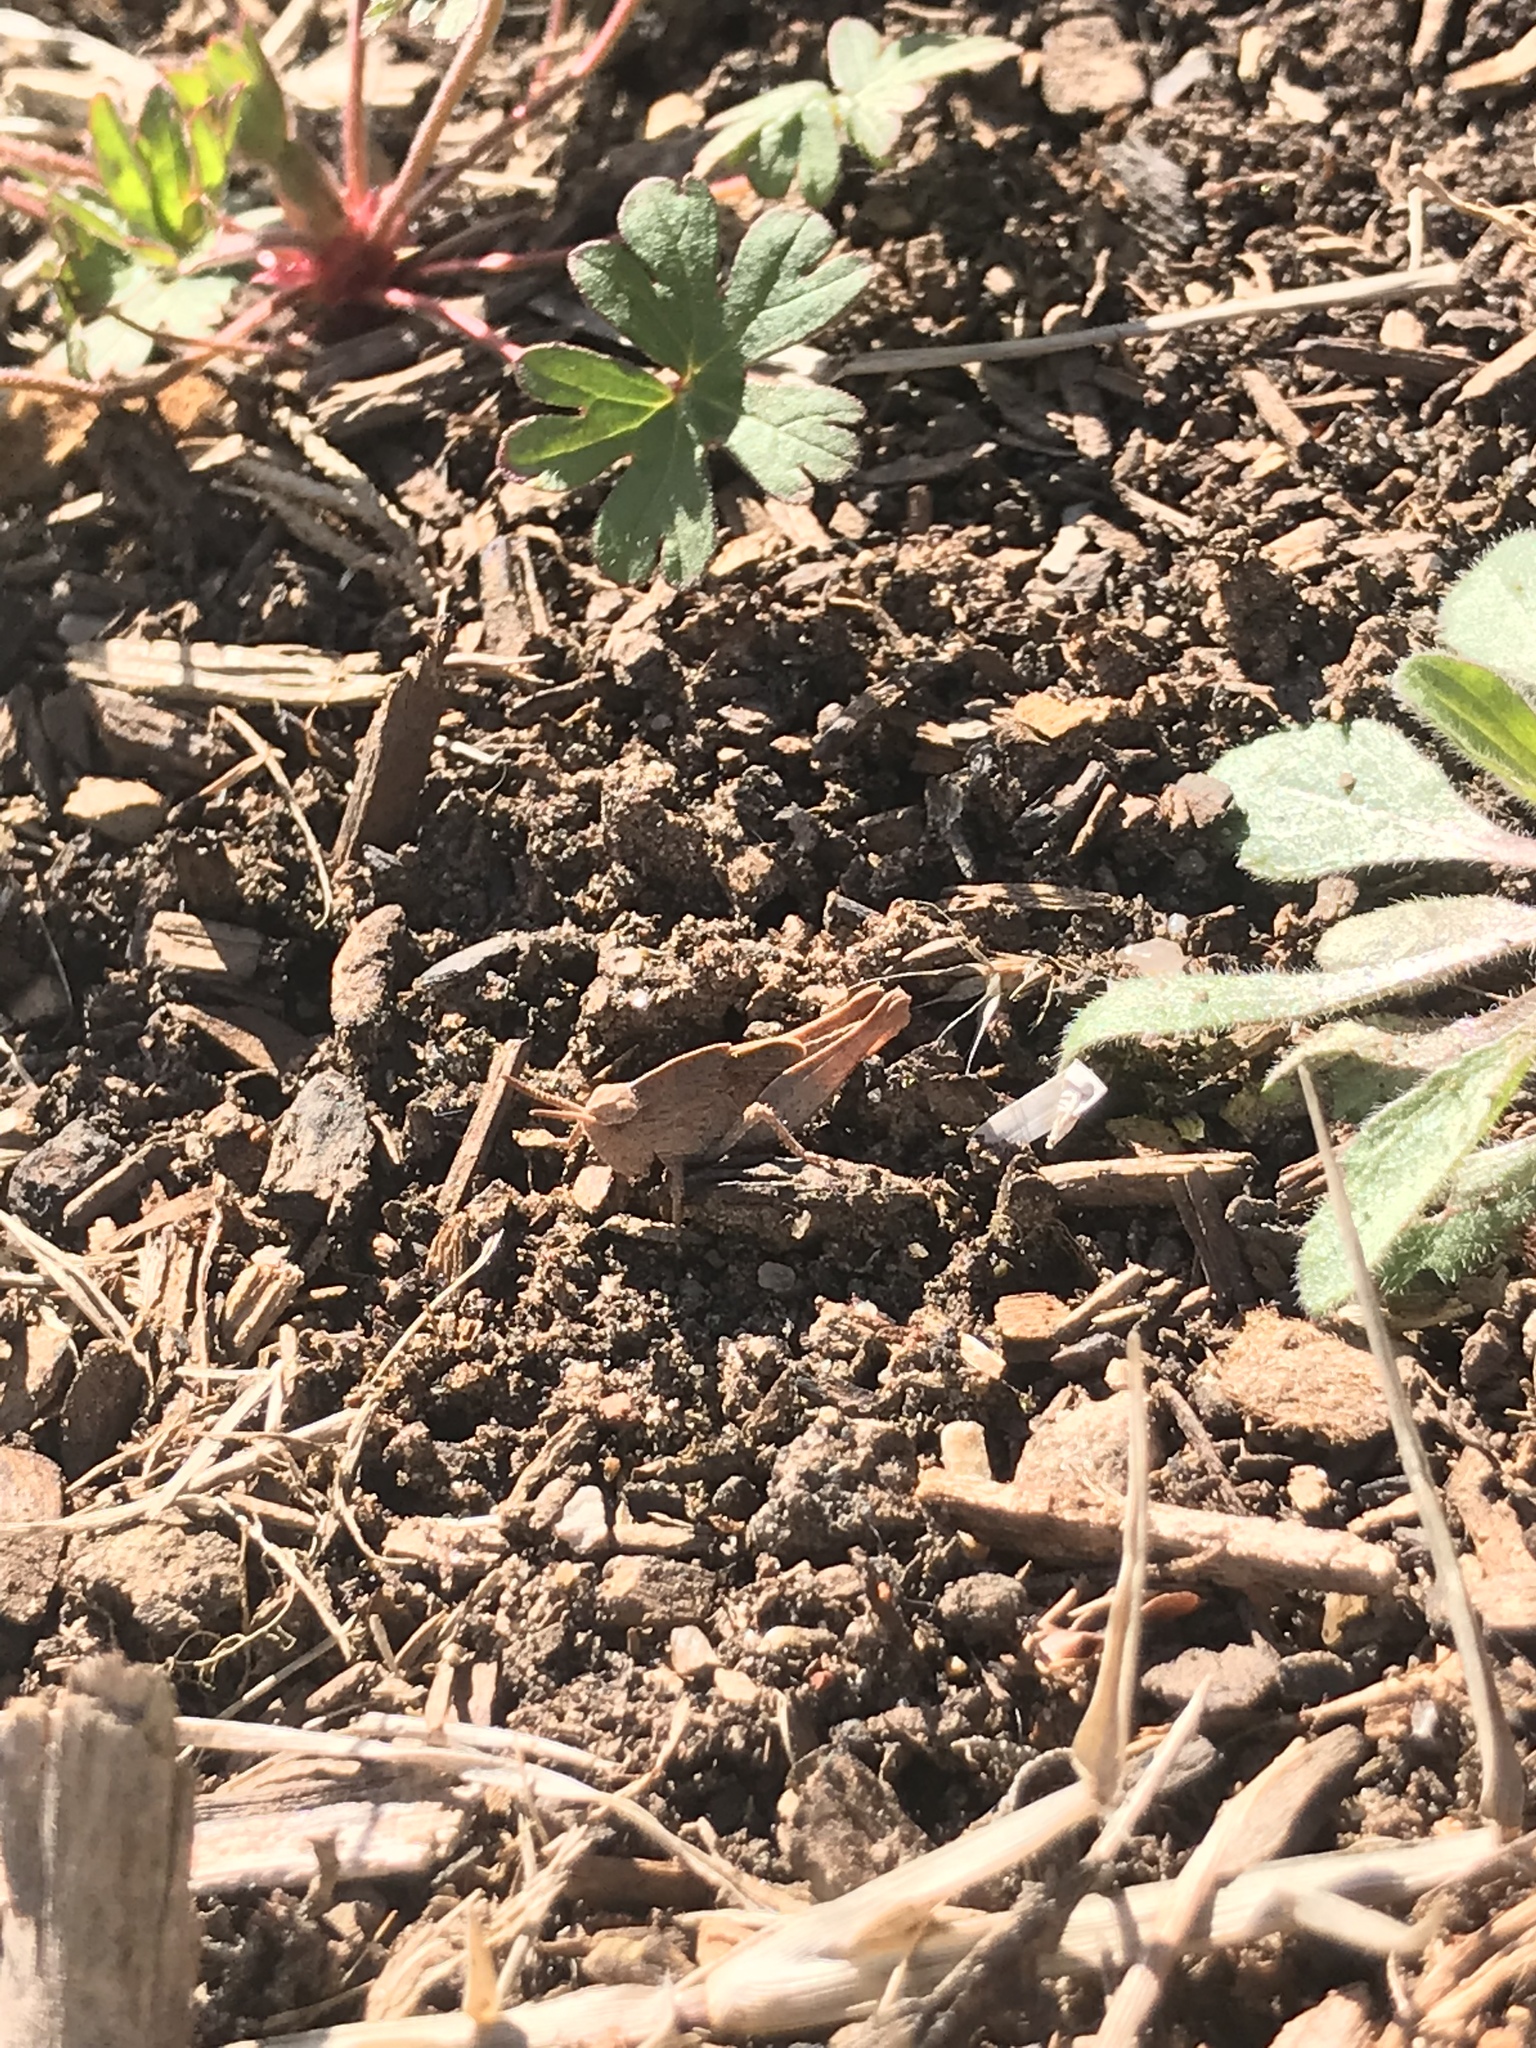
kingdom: Animalia
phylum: Arthropoda
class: Insecta
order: Orthoptera
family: Acrididae
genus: Chortophaga
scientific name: Chortophaga viridifasciata
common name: Green-striped grasshopper
